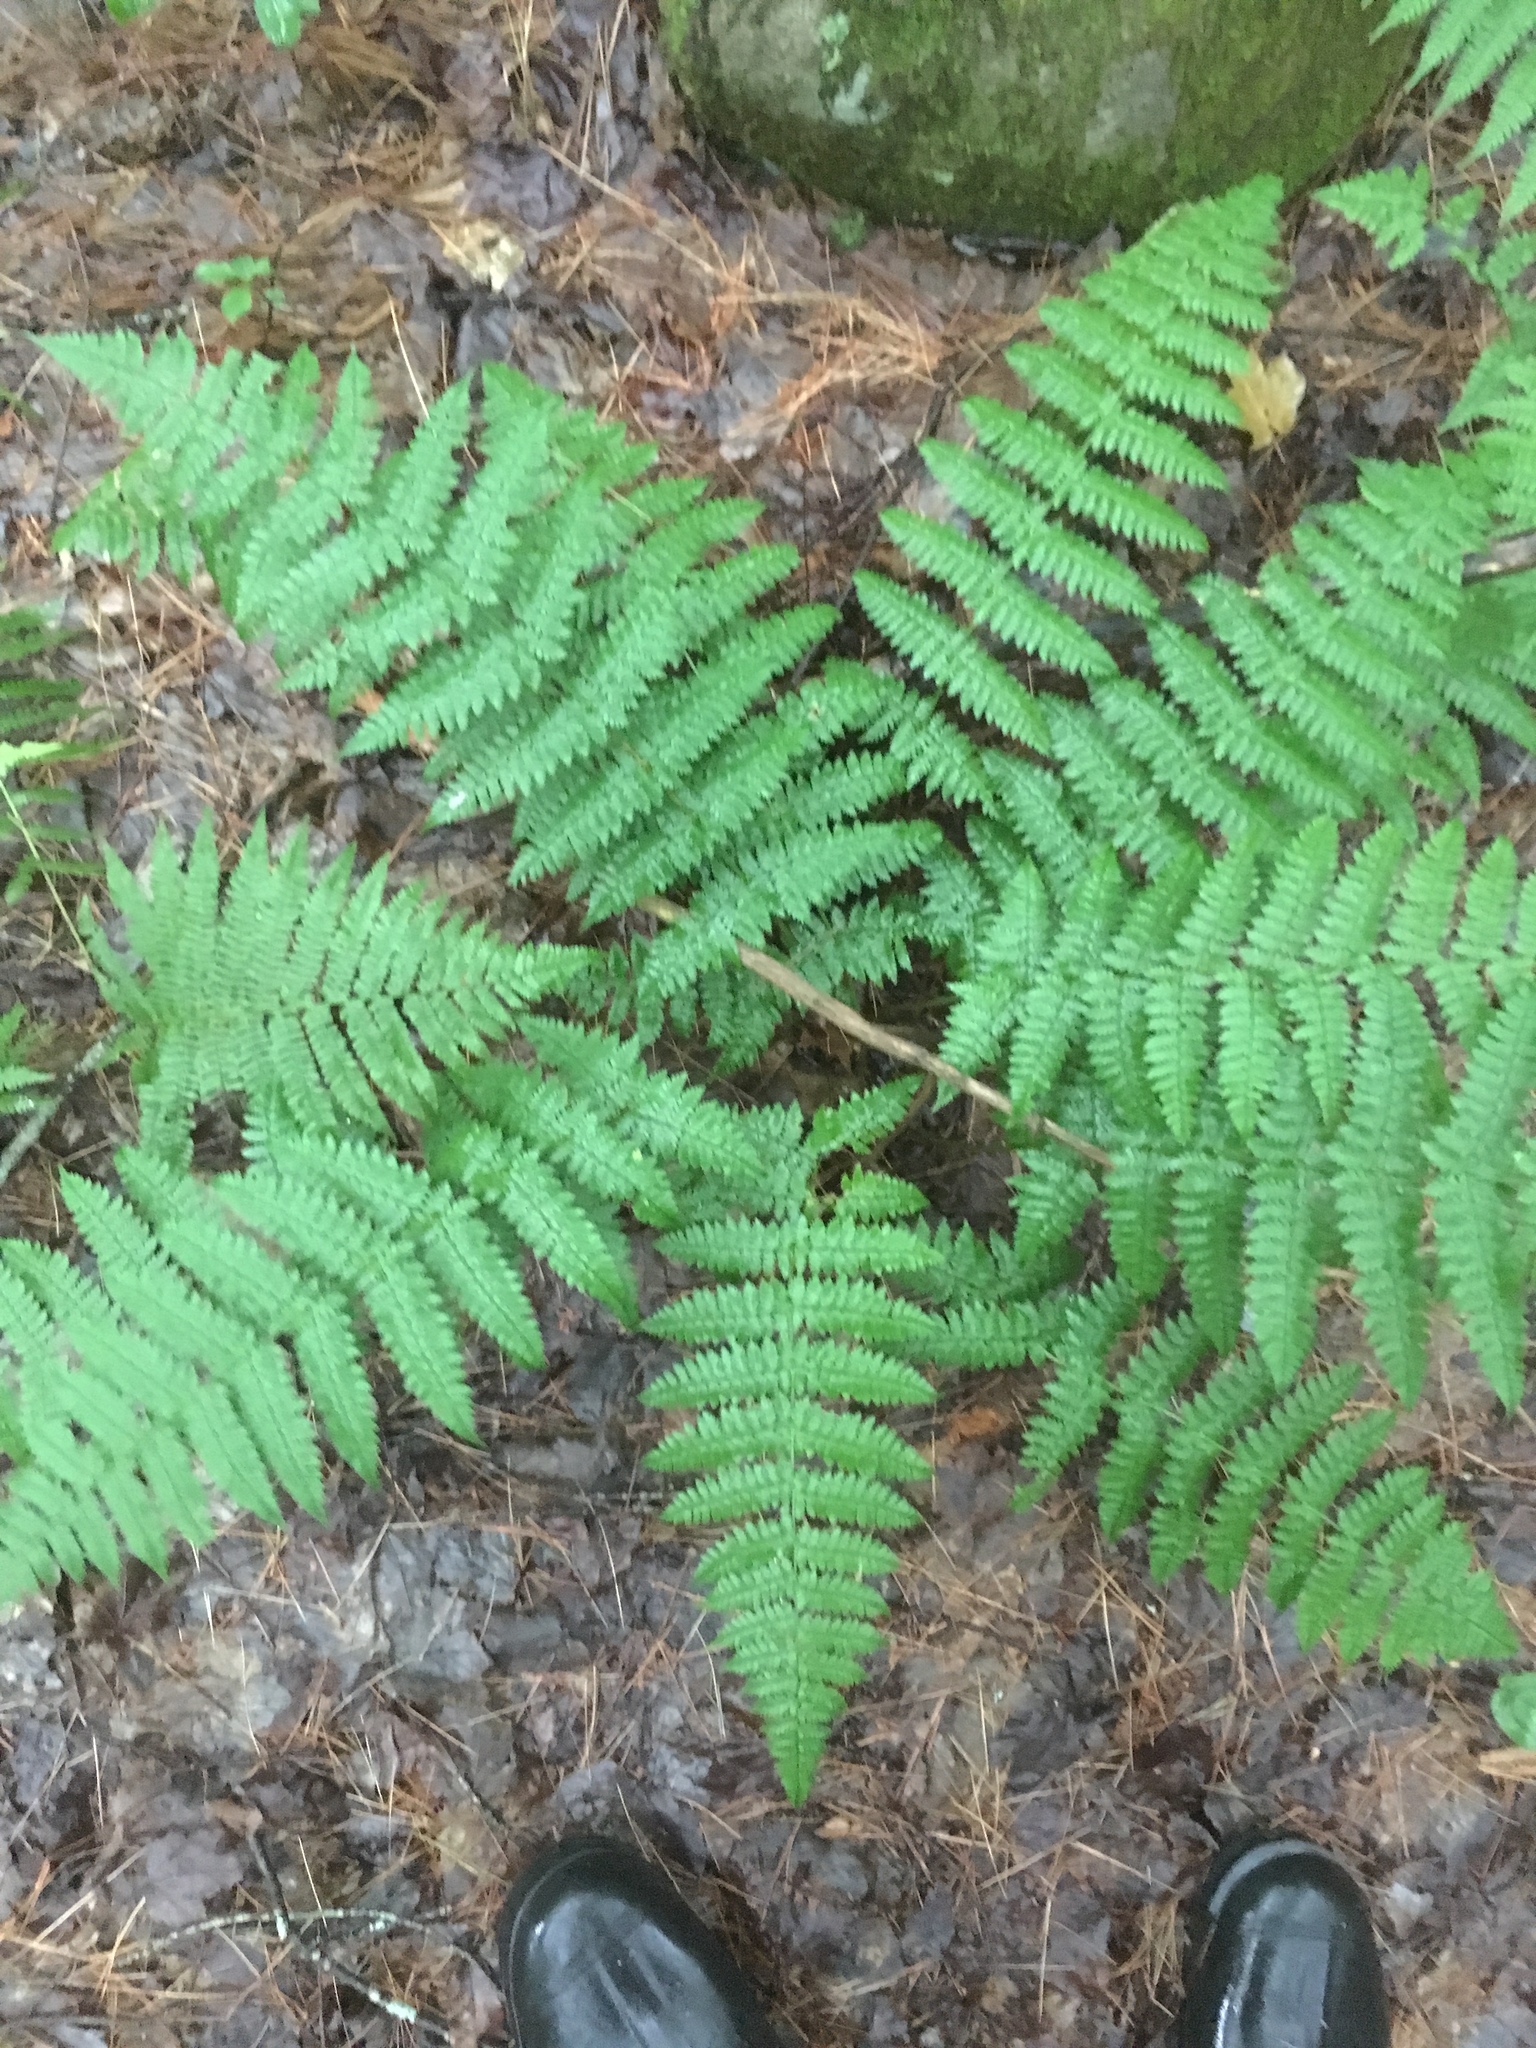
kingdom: Plantae
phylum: Tracheophyta
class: Polypodiopsida
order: Polypodiales
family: Dryopteridaceae
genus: Dryopteris
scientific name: Dryopteris intermedia
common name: Evergreen wood fern
